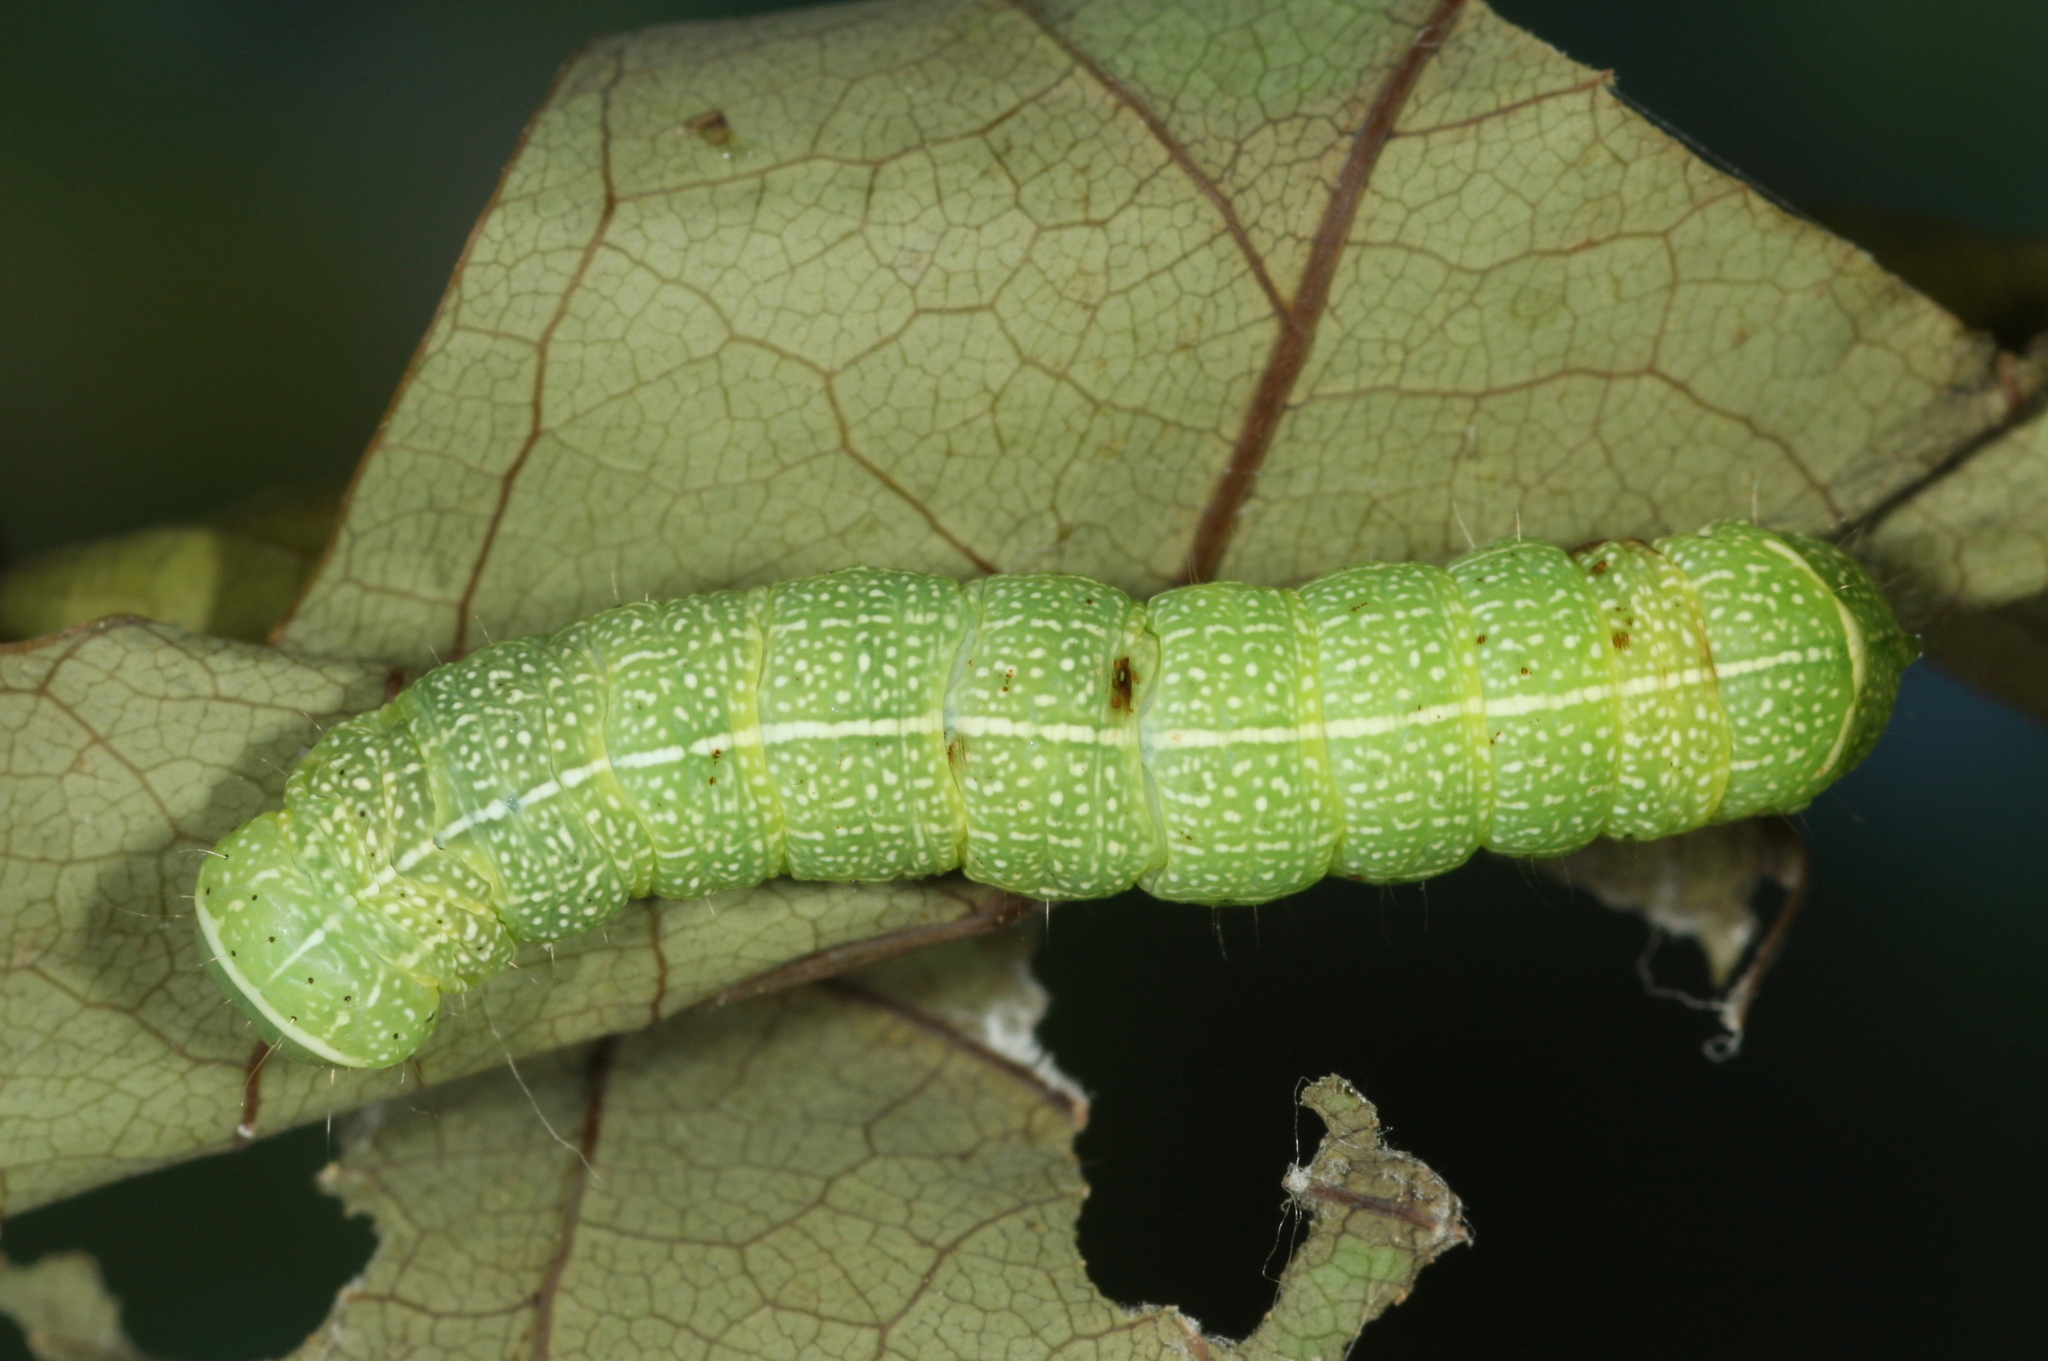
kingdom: Animalia
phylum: Arthropoda
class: Insecta
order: Lepidoptera
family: Noctuidae
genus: Orthosia
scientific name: Orthosia cerasi
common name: Common quaker
